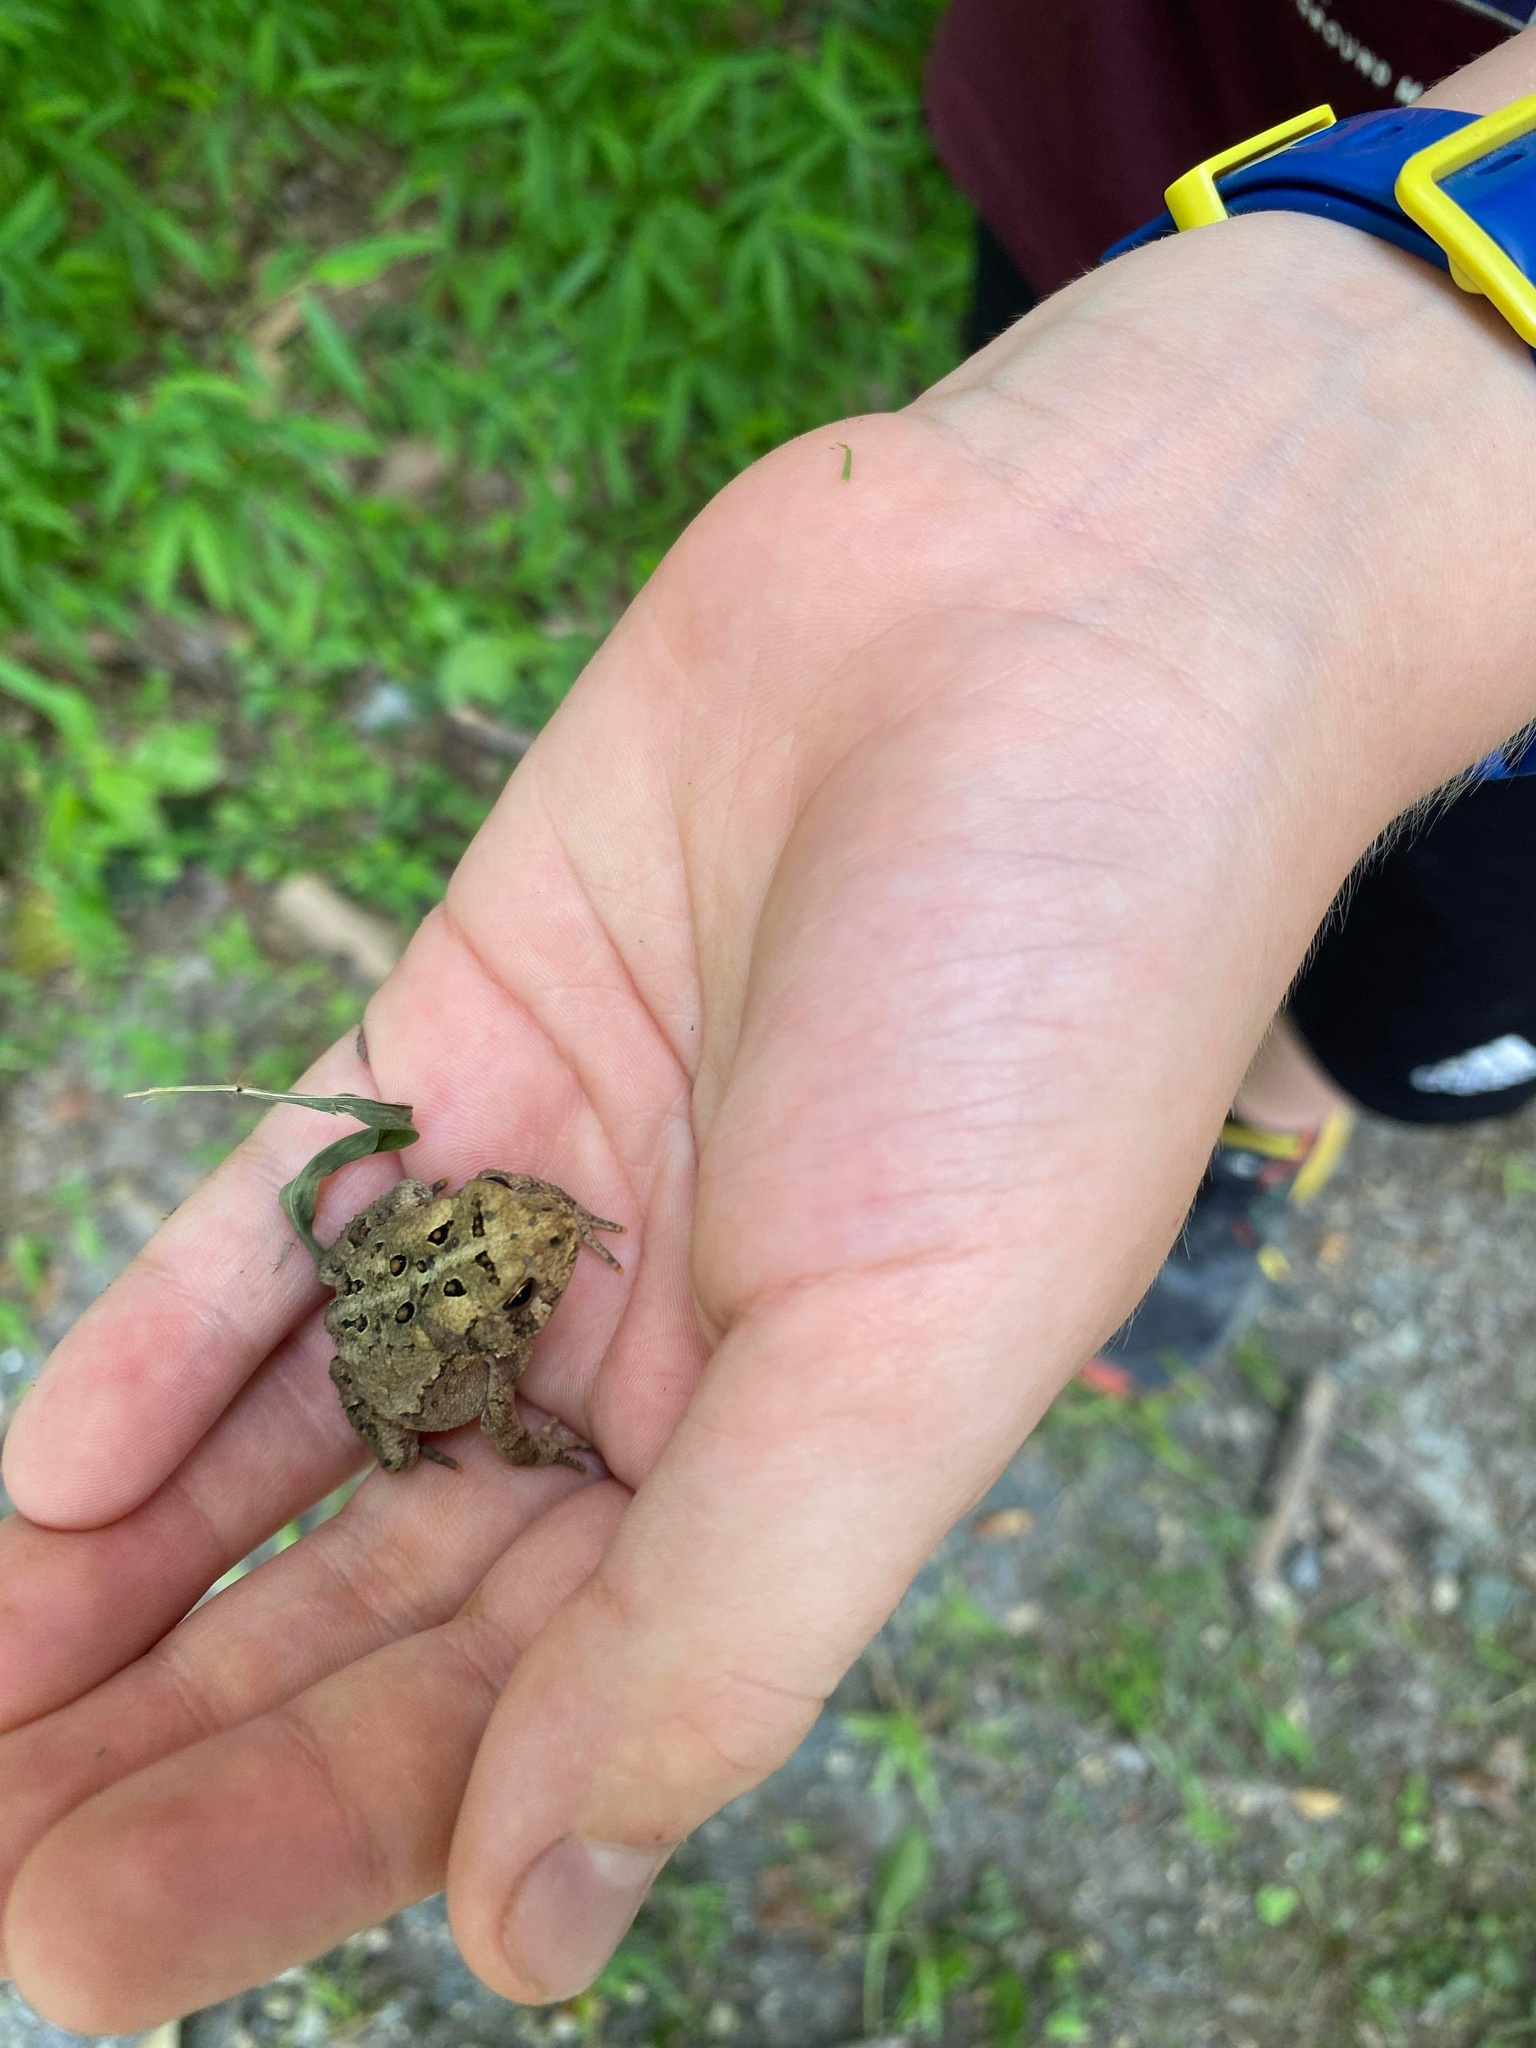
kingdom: Animalia
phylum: Chordata
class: Amphibia
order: Anura
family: Bufonidae
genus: Anaxyrus
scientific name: Anaxyrus americanus
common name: American toad
